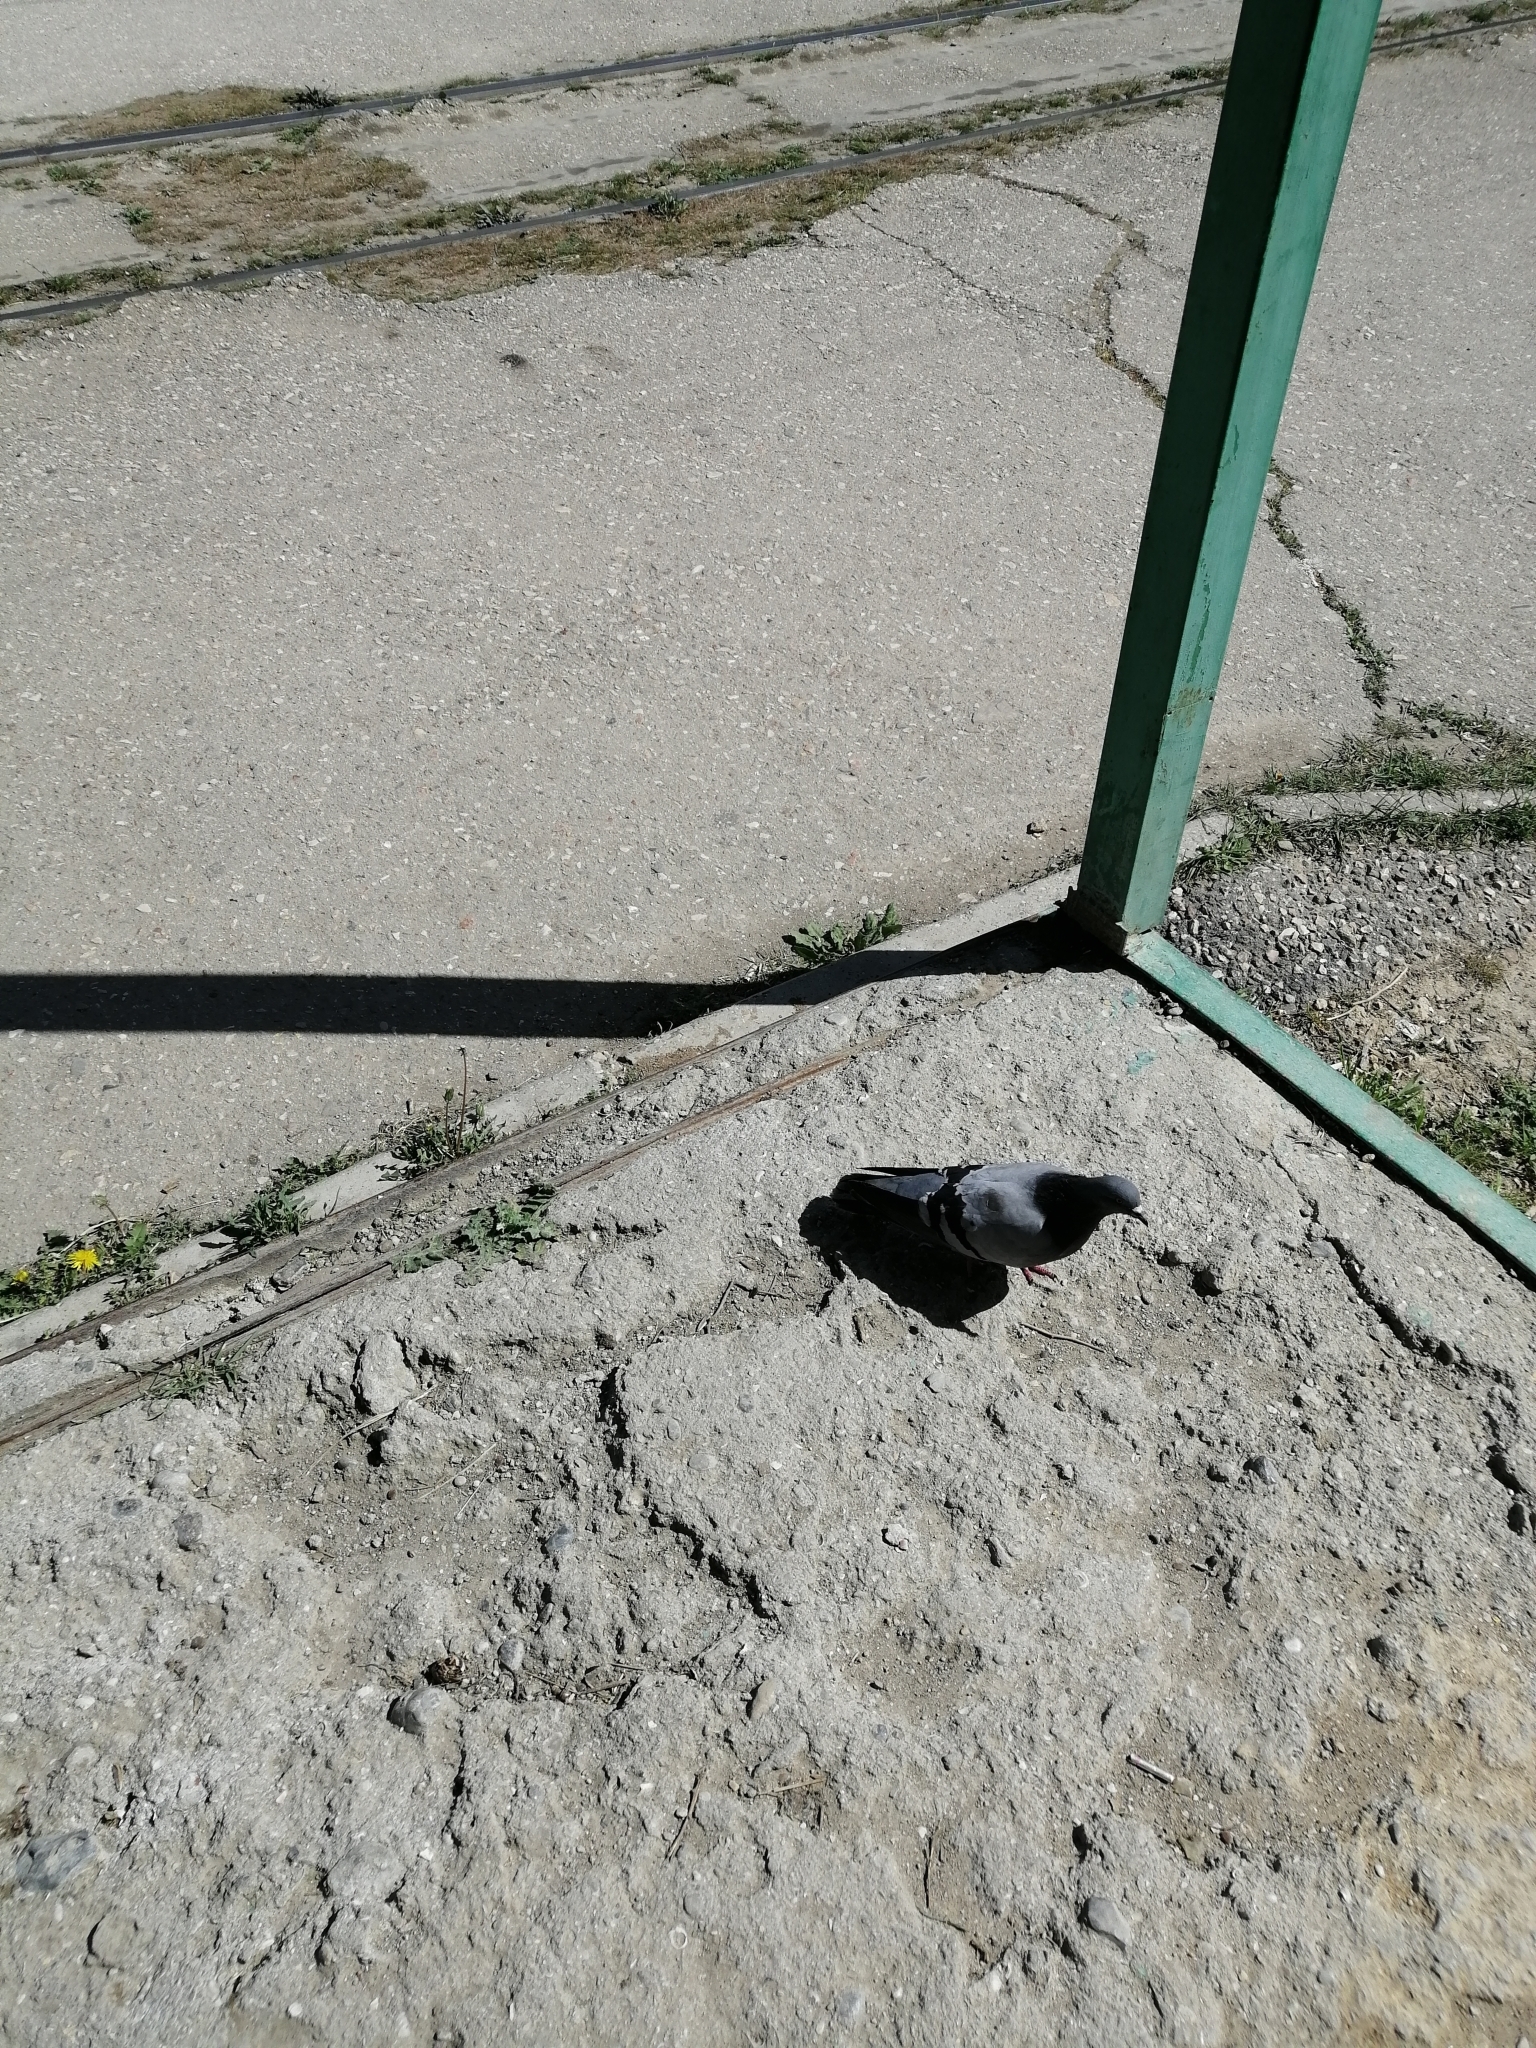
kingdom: Animalia
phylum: Chordata
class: Aves
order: Columbiformes
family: Columbidae
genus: Columba
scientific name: Columba livia
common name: Rock pigeon
